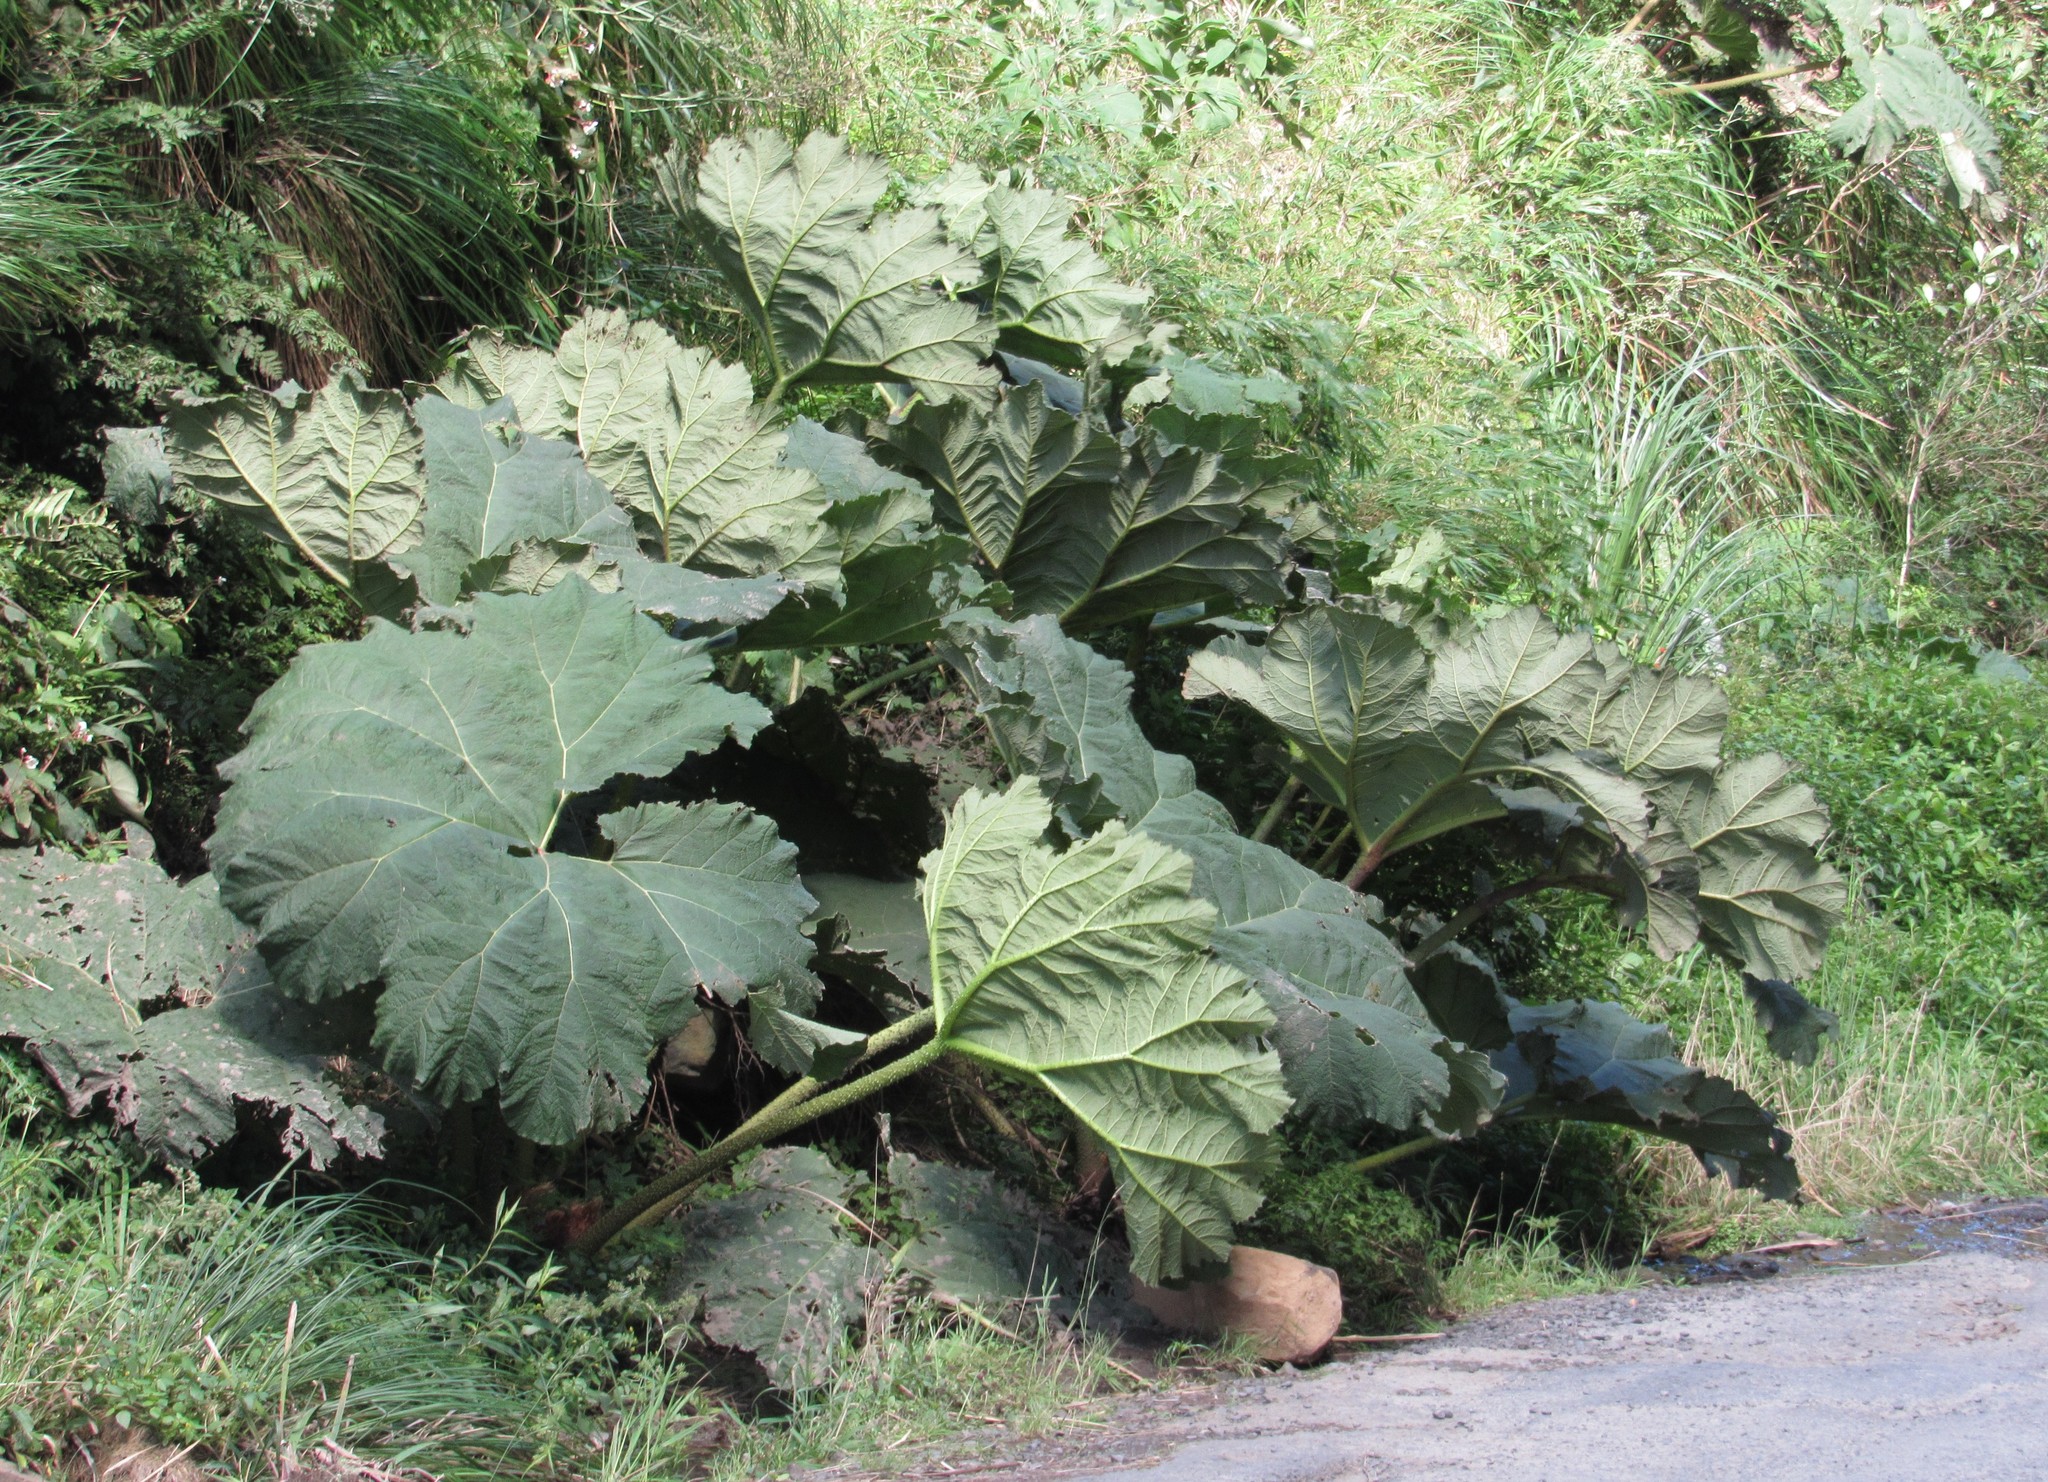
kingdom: Plantae
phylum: Tracheophyta
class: Magnoliopsida
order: Gunnerales
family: Gunneraceae
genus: Gunnera
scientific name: Gunnera manicata
